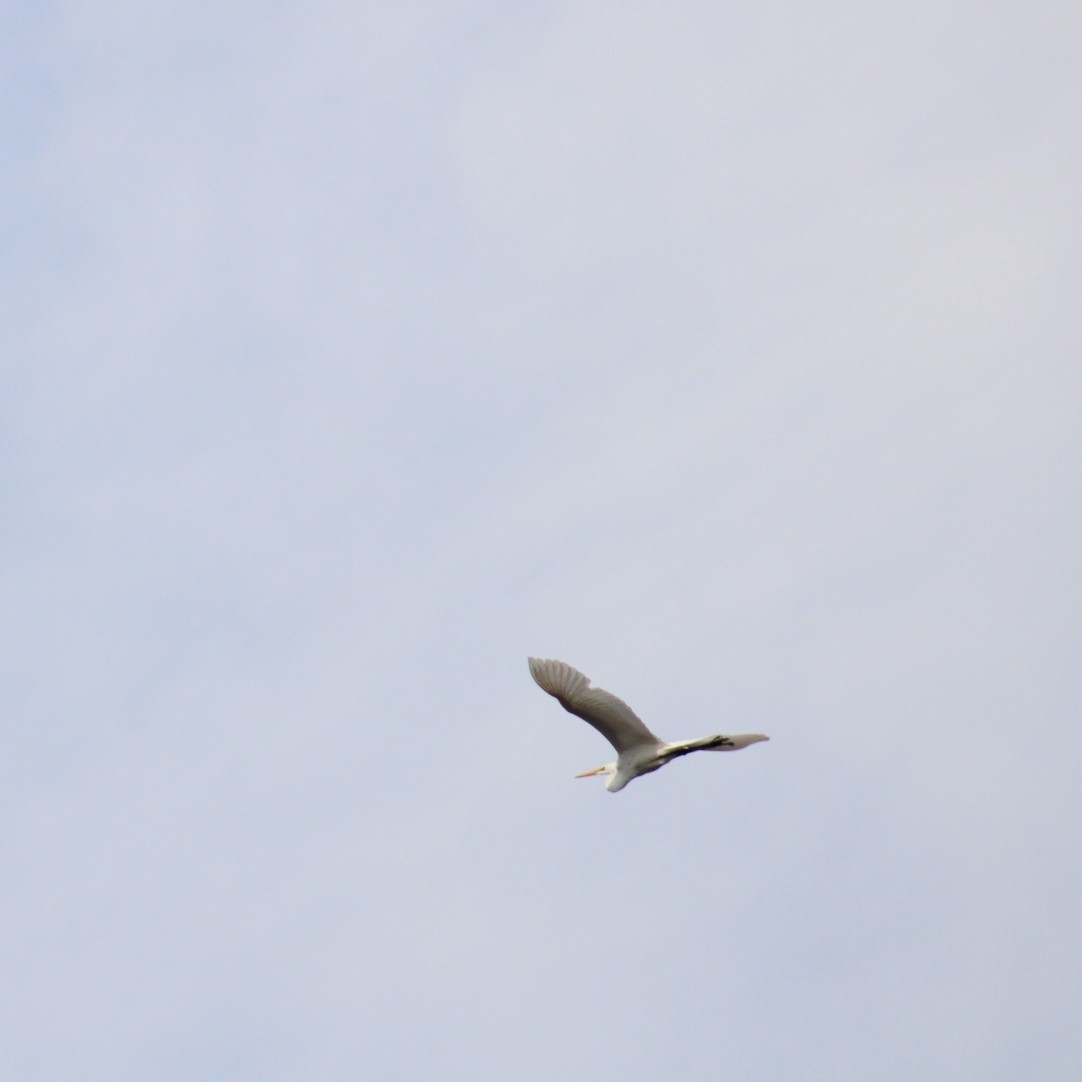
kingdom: Animalia
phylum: Chordata
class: Aves
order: Pelecaniformes
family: Ardeidae
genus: Ardea
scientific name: Ardea alba
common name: Great egret
